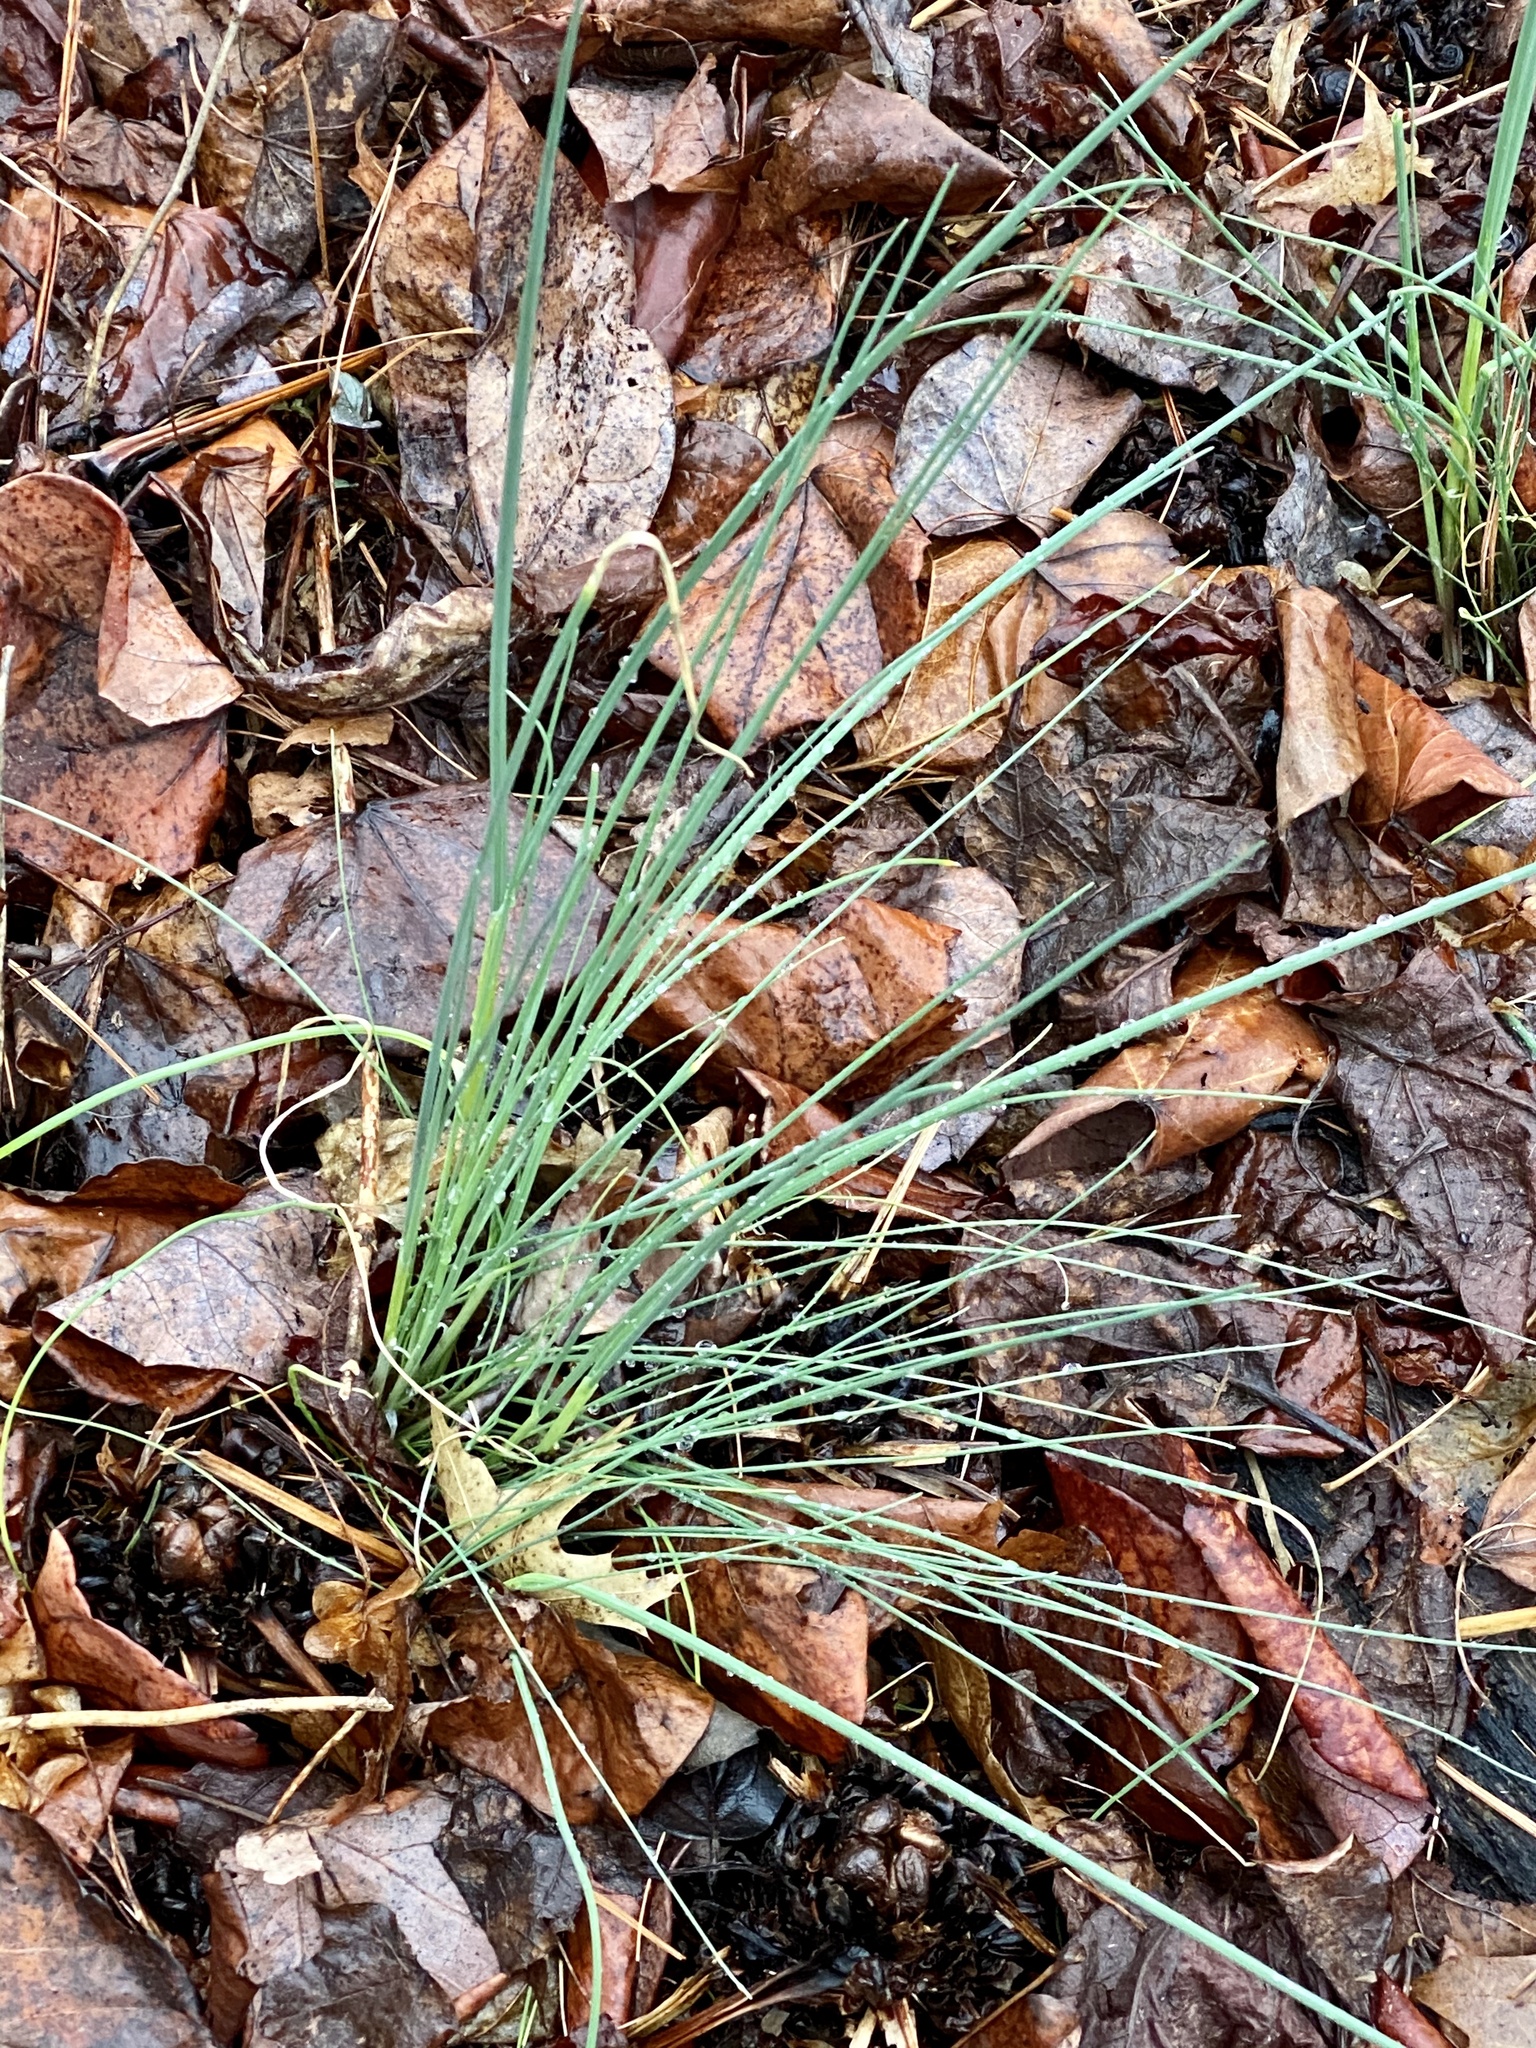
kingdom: Plantae
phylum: Tracheophyta
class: Liliopsida
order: Asparagales
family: Amaryllidaceae
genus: Allium
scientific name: Allium vineale
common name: Crow garlic
